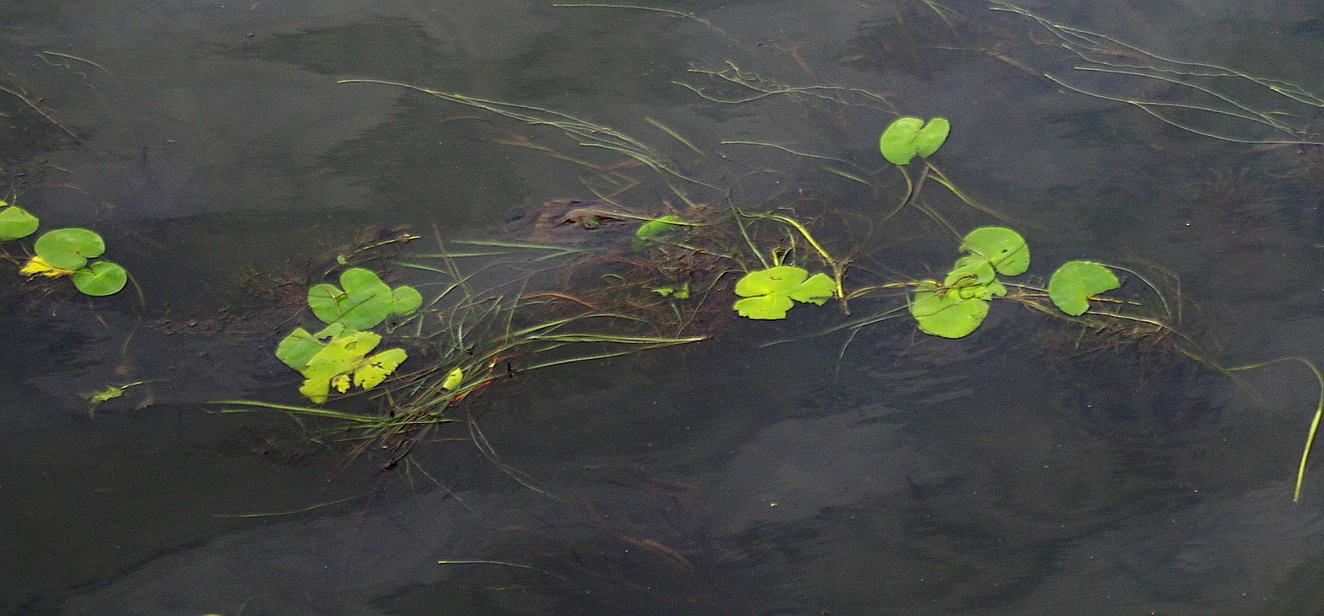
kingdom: Plantae
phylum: Tracheophyta
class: Magnoliopsida
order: Nymphaeales
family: Nymphaeaceae
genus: Nuphar
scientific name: Nuphar lutea
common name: Yellow water-lily
